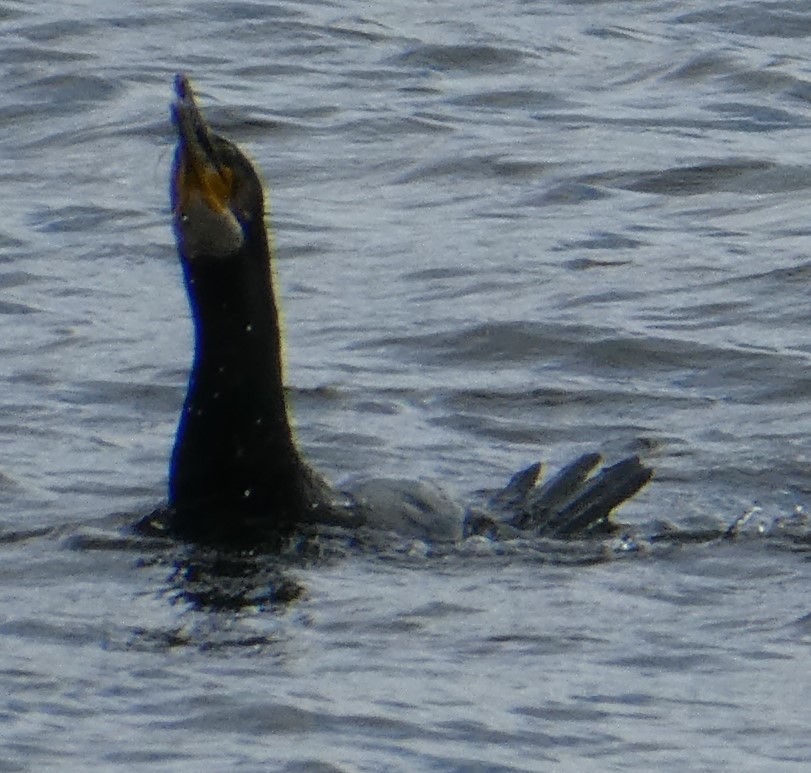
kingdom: Animalia
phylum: Chordata
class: Aves
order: Suliformes
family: Phalacrocoracidae
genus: Phalacrocorax
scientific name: Phalacrocorax carbo
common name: Great cormorant
